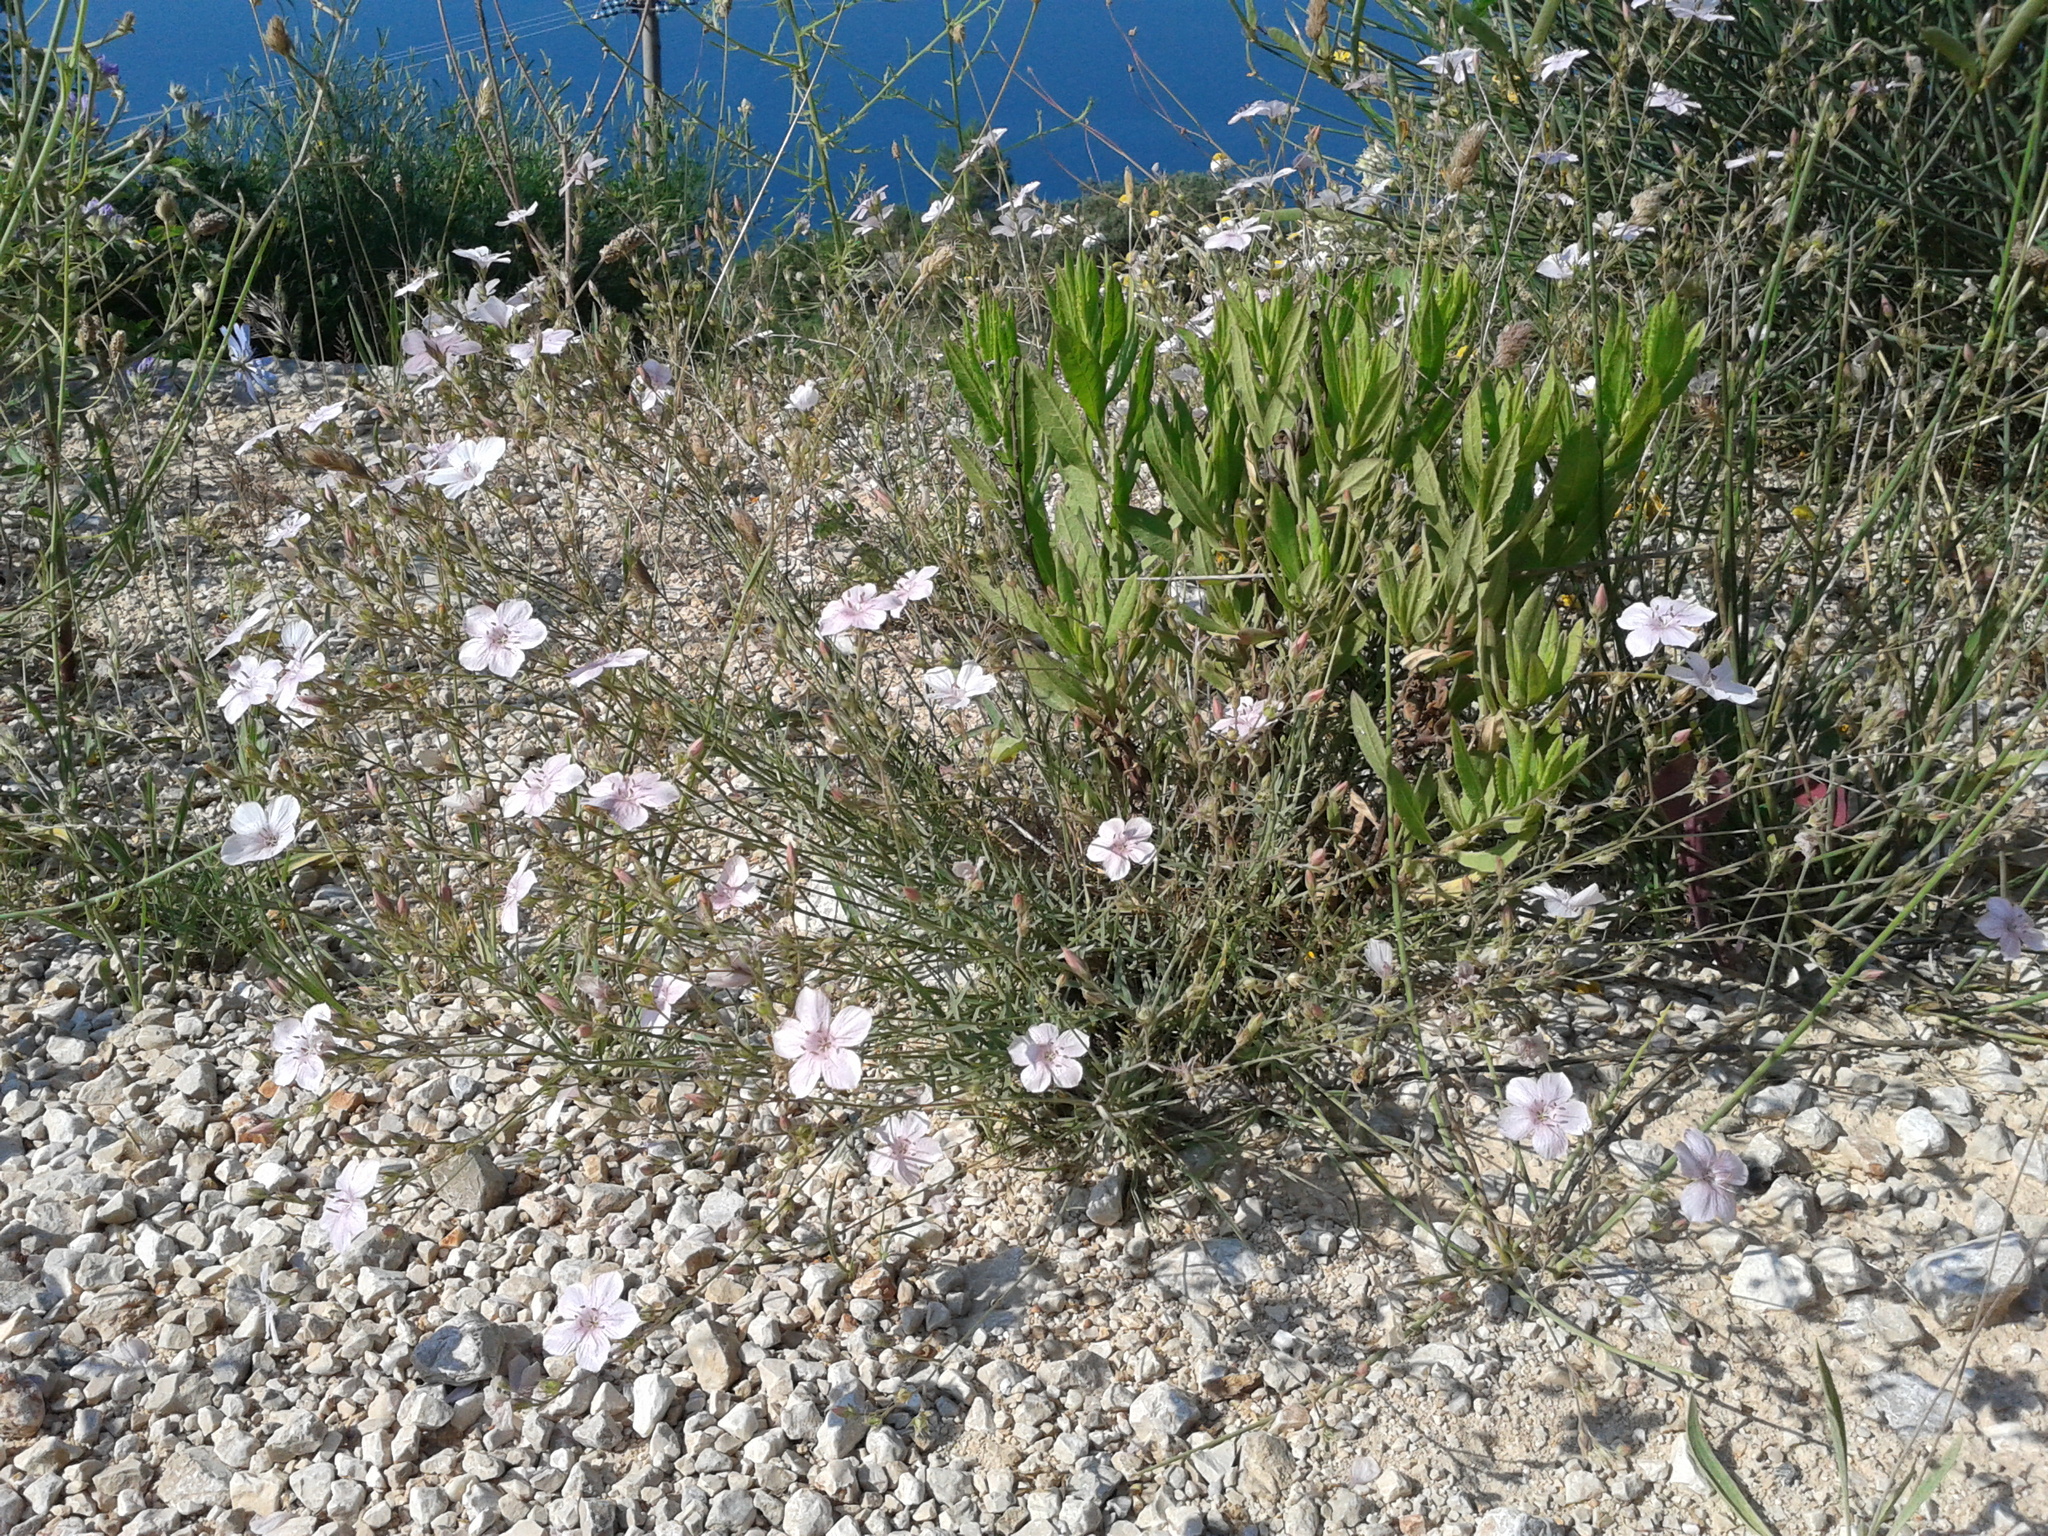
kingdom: Plantae
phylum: Tracheophyta
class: Magnoliopsida
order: Malpighiales
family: Linaceae
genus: Linum
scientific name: Linum tenuifolium
